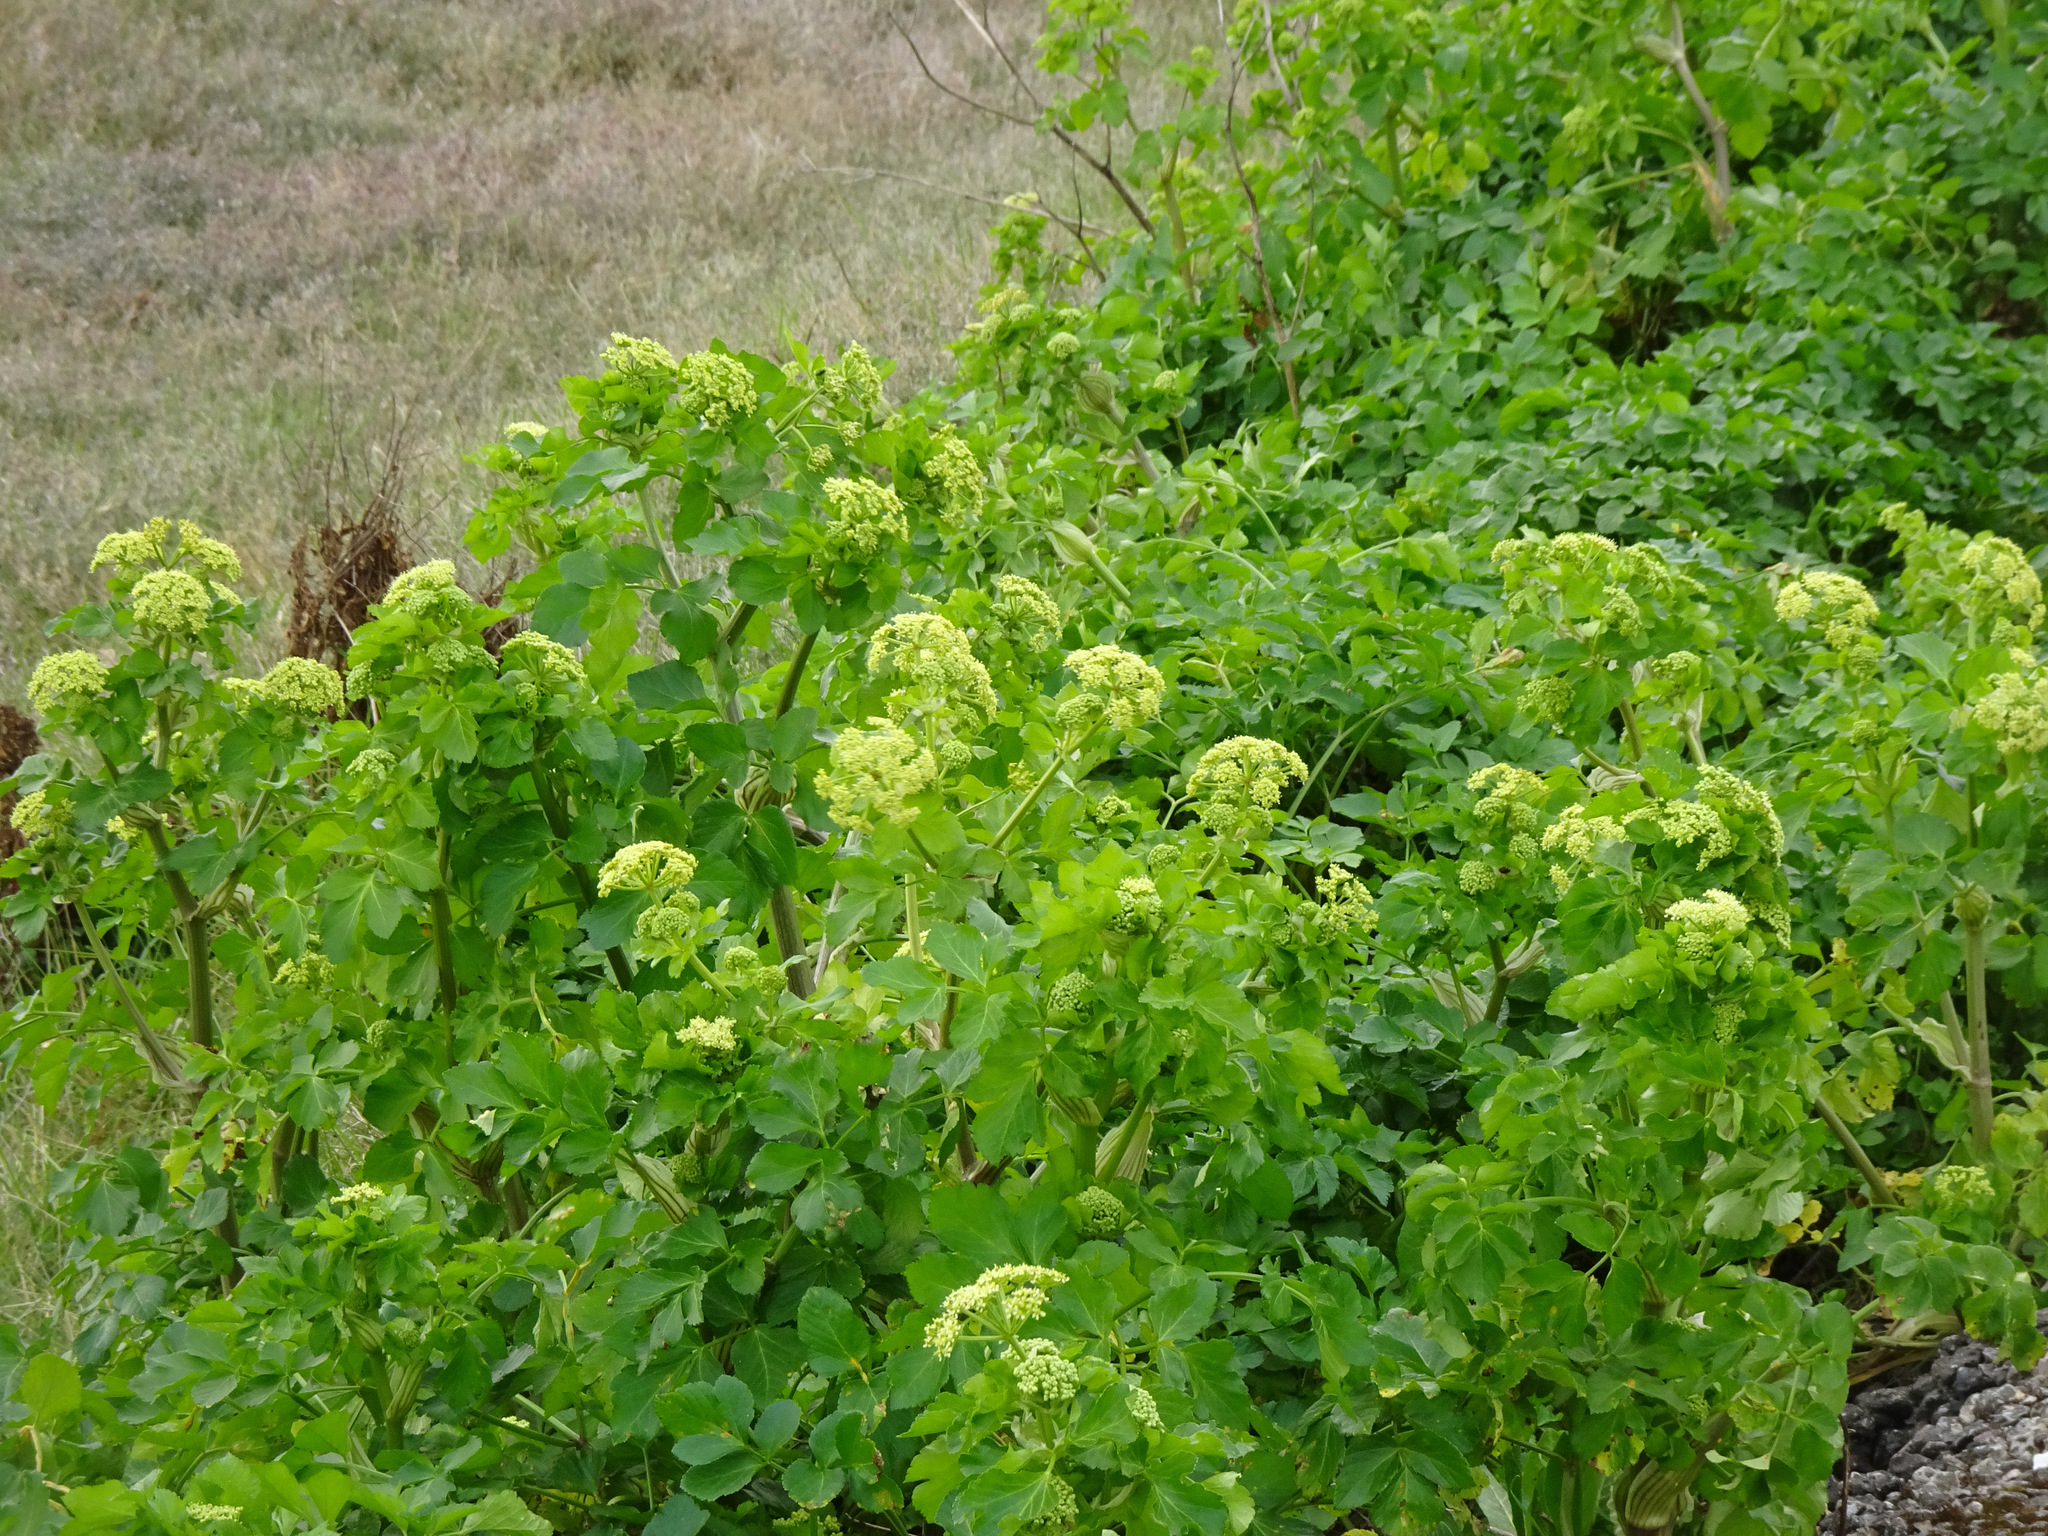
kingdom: Plantae
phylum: Tracheophyta
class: Magnoliopsida
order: Apiales
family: Apiaceae
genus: Smyrnium
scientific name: Smyrnium olusatrum
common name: Alexanders
